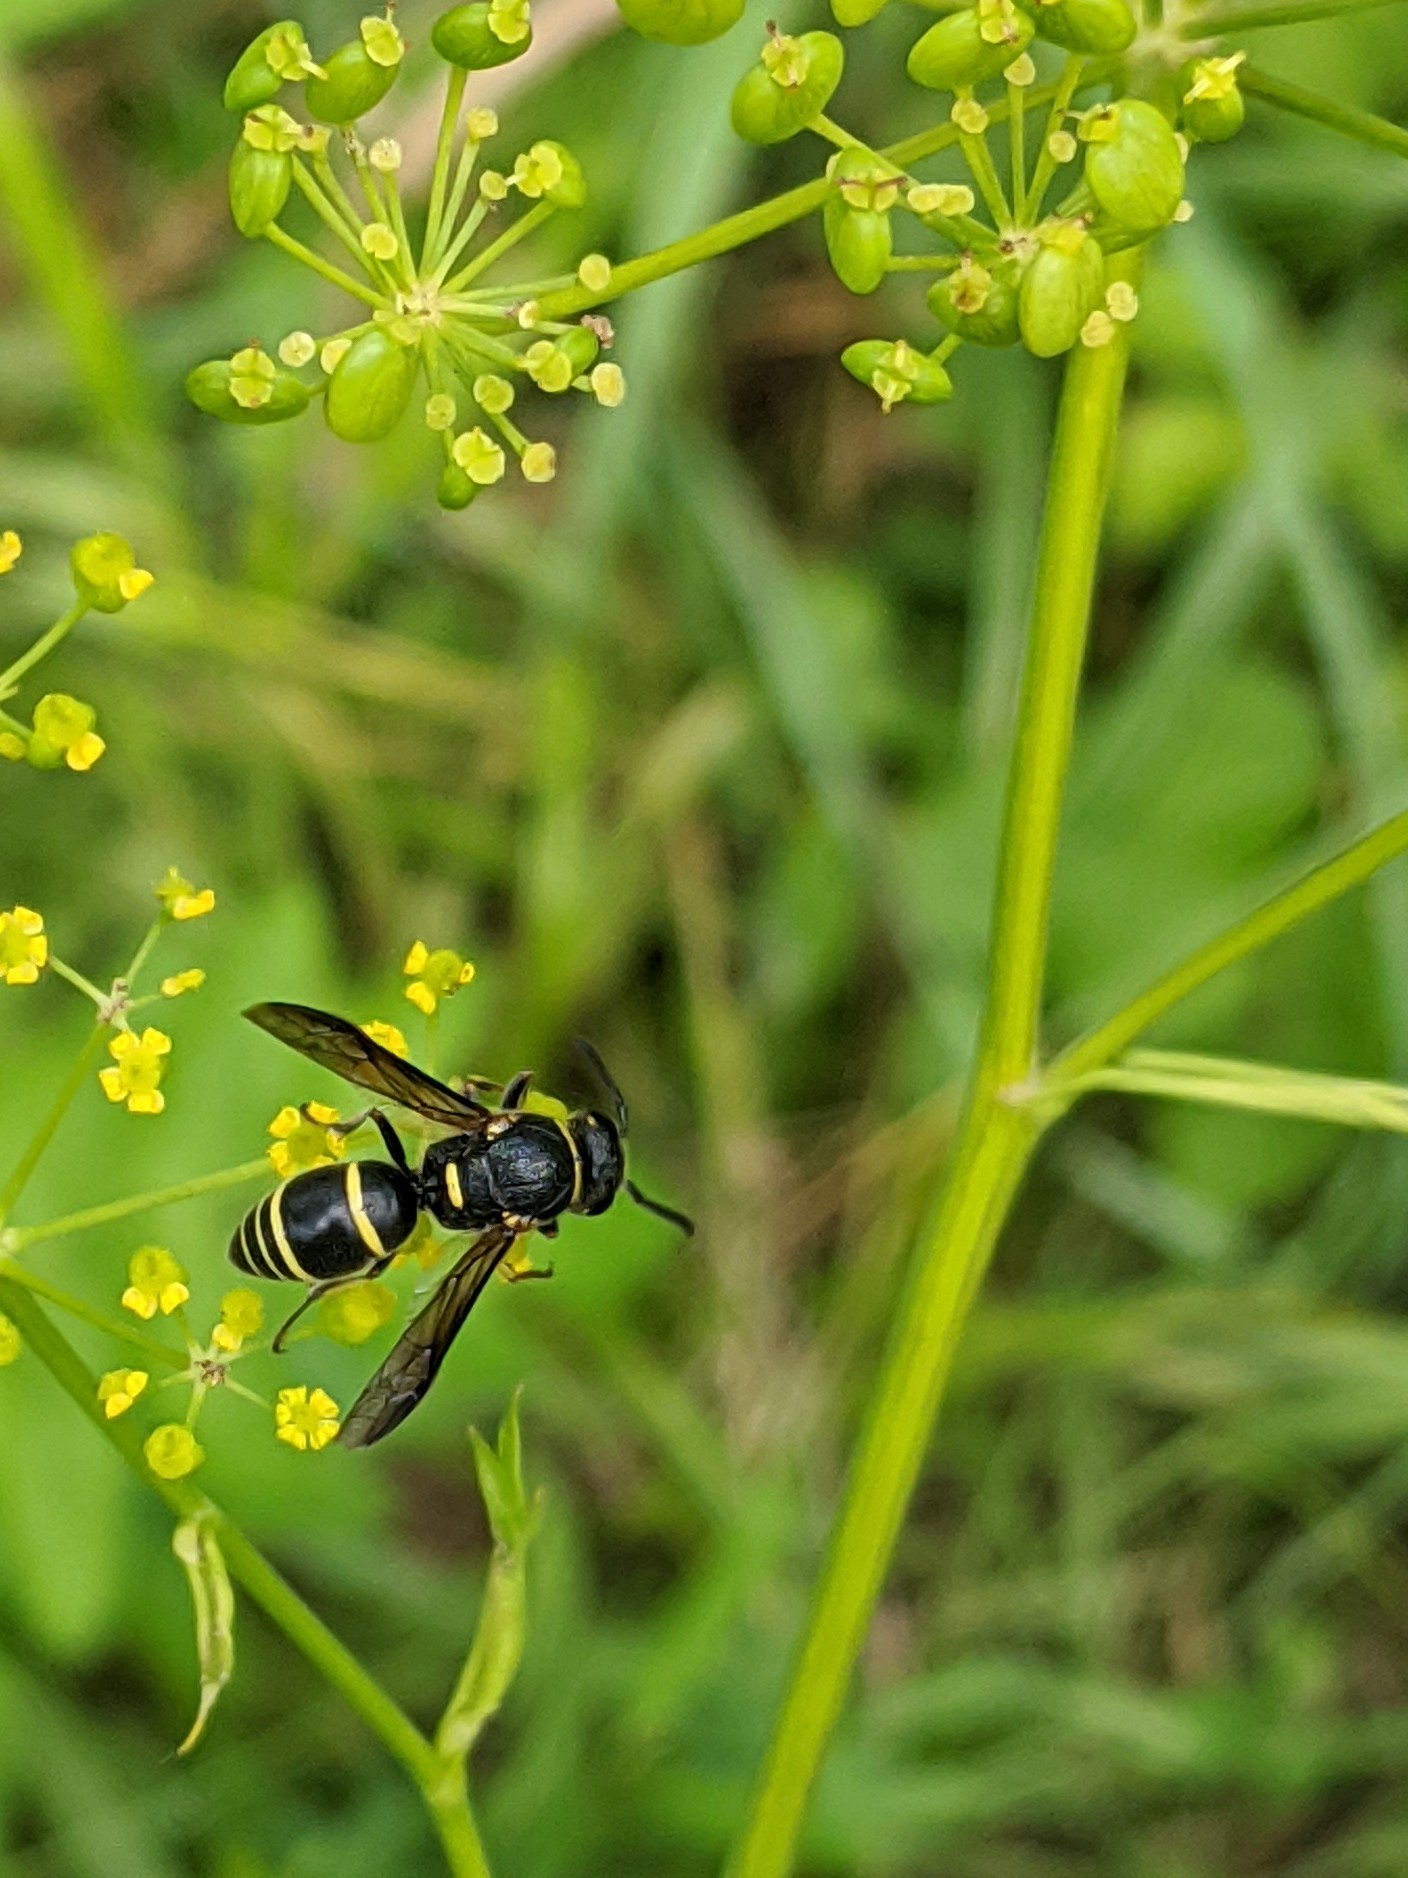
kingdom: Animalia
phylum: Arthropoda
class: Insecta
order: Hymenoptera
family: Eumenidae
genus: Euodynerus
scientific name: Euodynerus foraminatus
